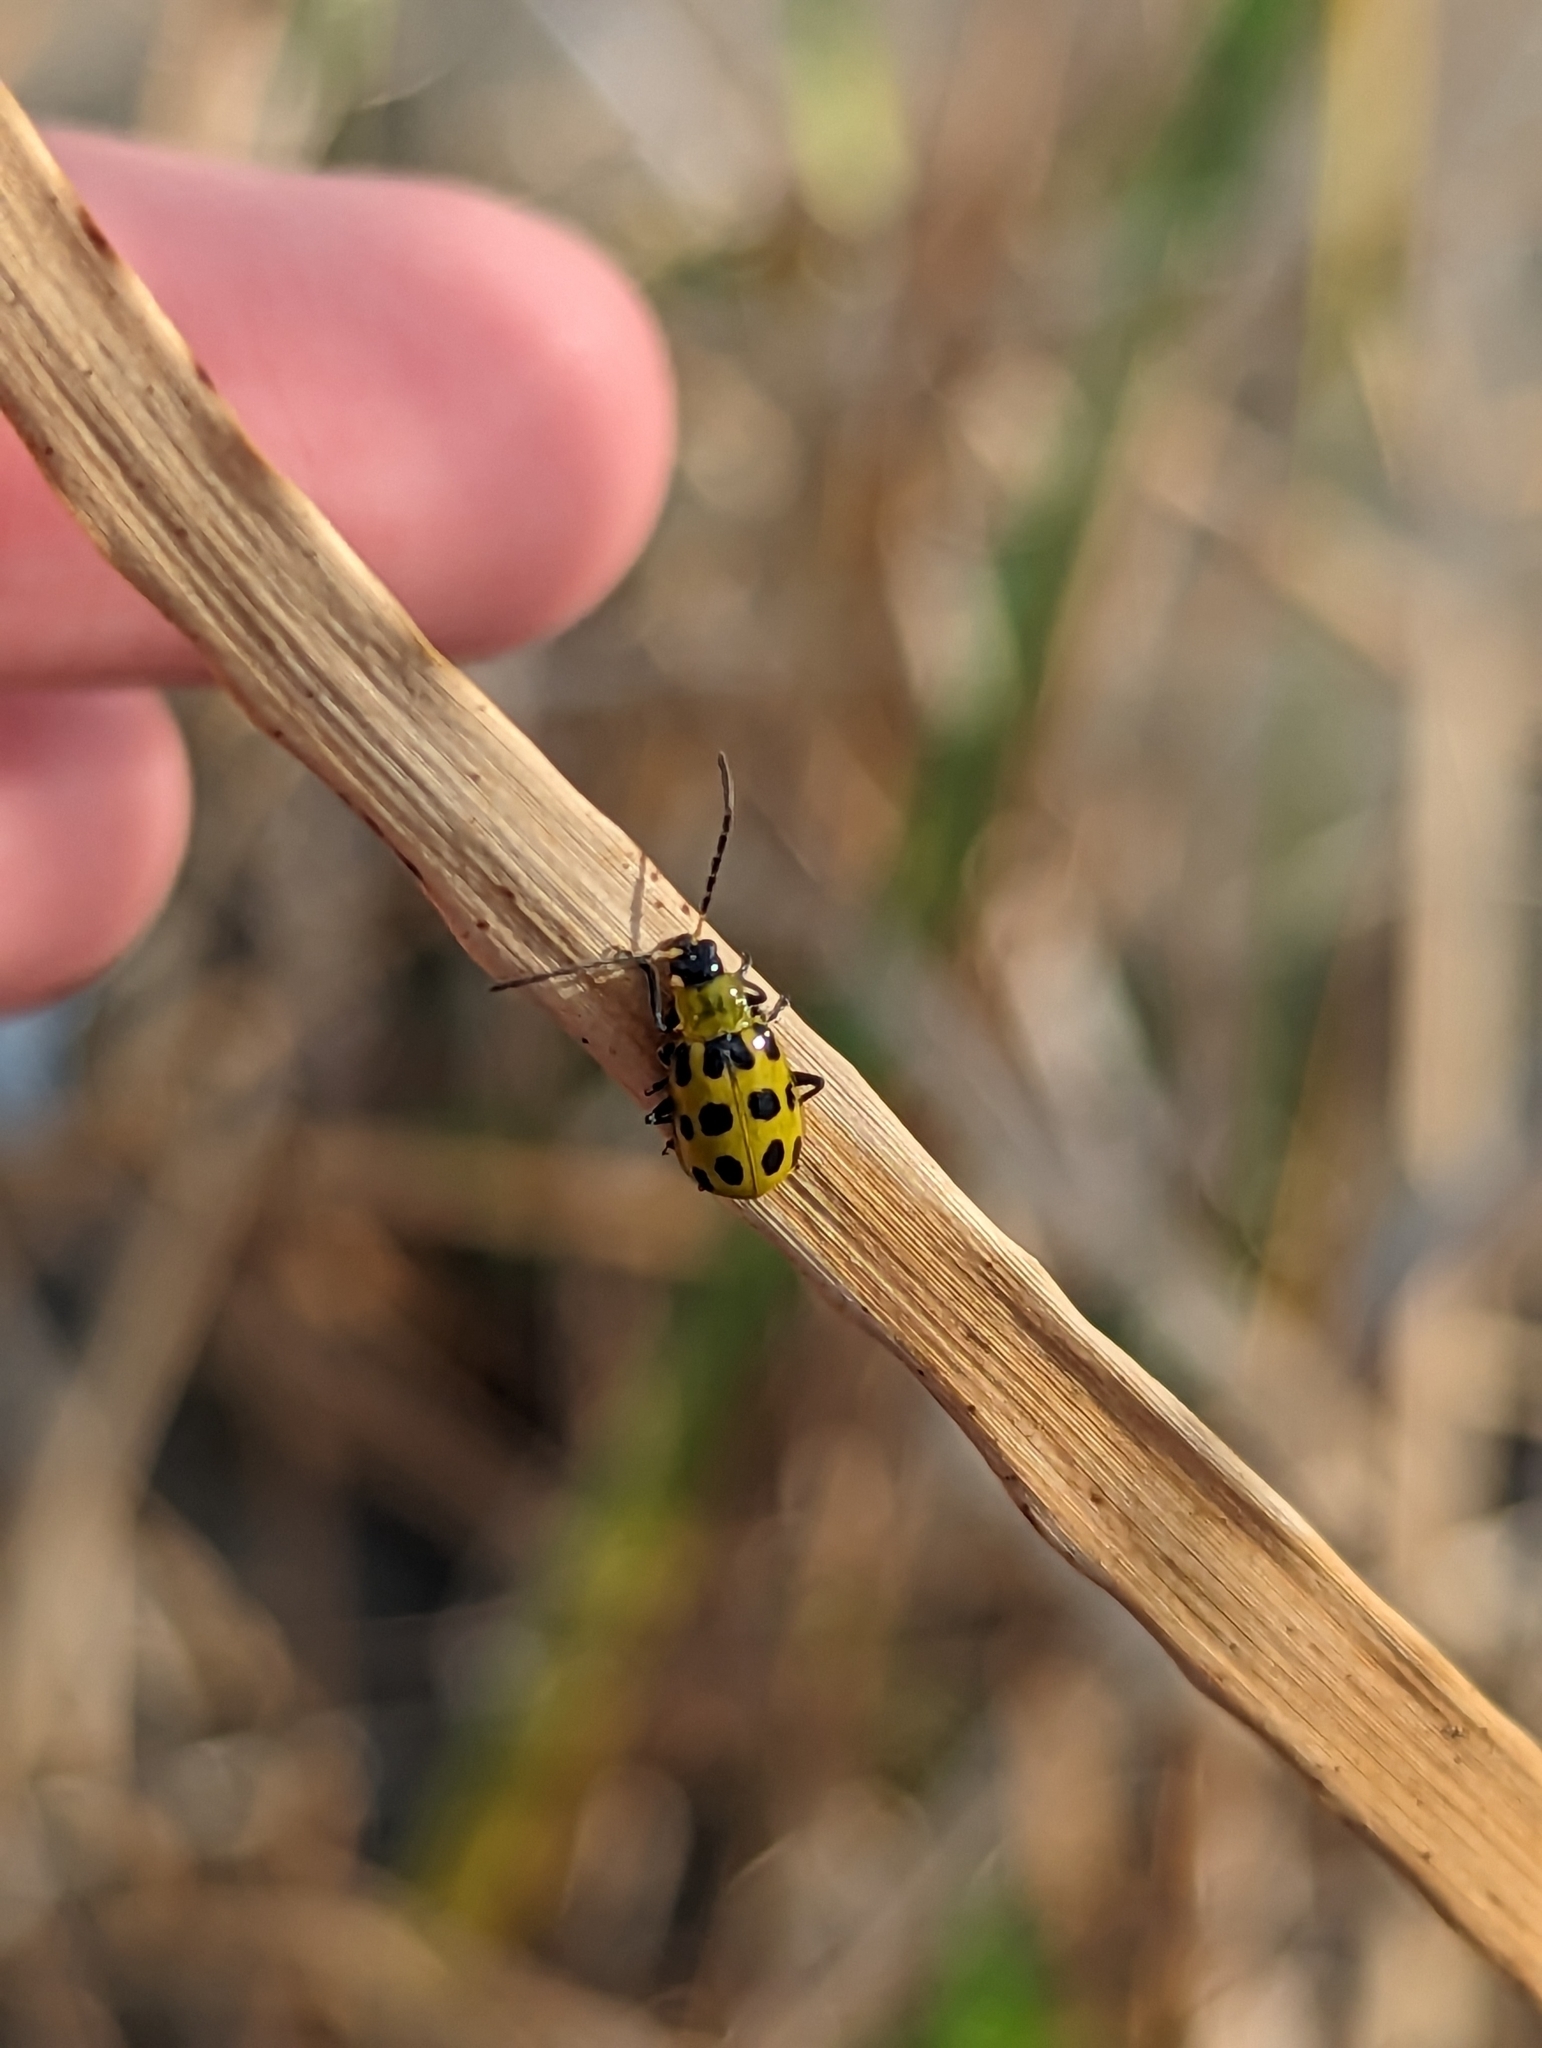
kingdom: Animalia
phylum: Arthropoda
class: Insecta
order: Coleoptera
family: Chrysomelidae
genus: Diabrotica
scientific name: Diabrotica undecimpunctata
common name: Spotted cucumber beetle
